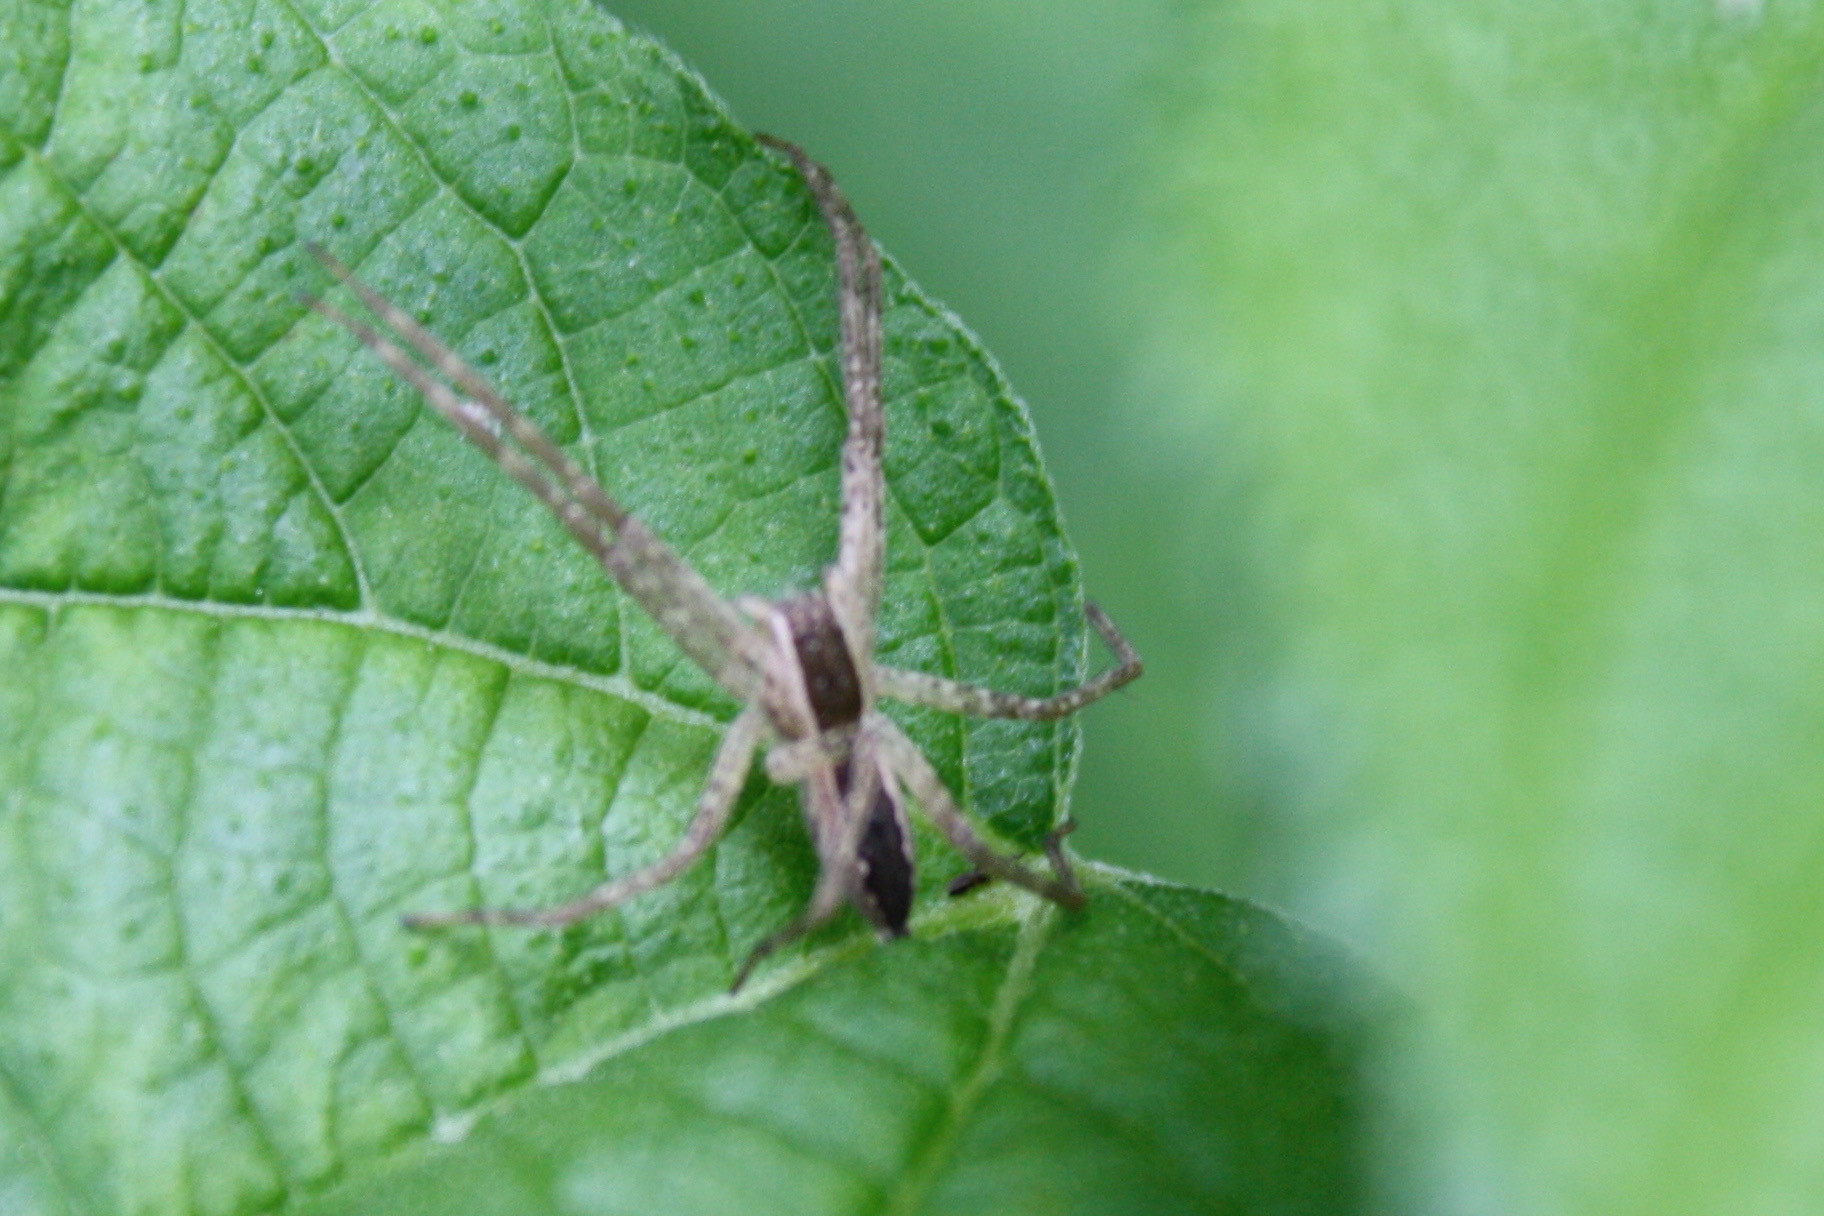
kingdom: Animalia
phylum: Arthropoda
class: Arachnida
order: Araneae
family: Pisauridae
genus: Pisaurina
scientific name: Pisaurina mira
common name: American nursery web spider
